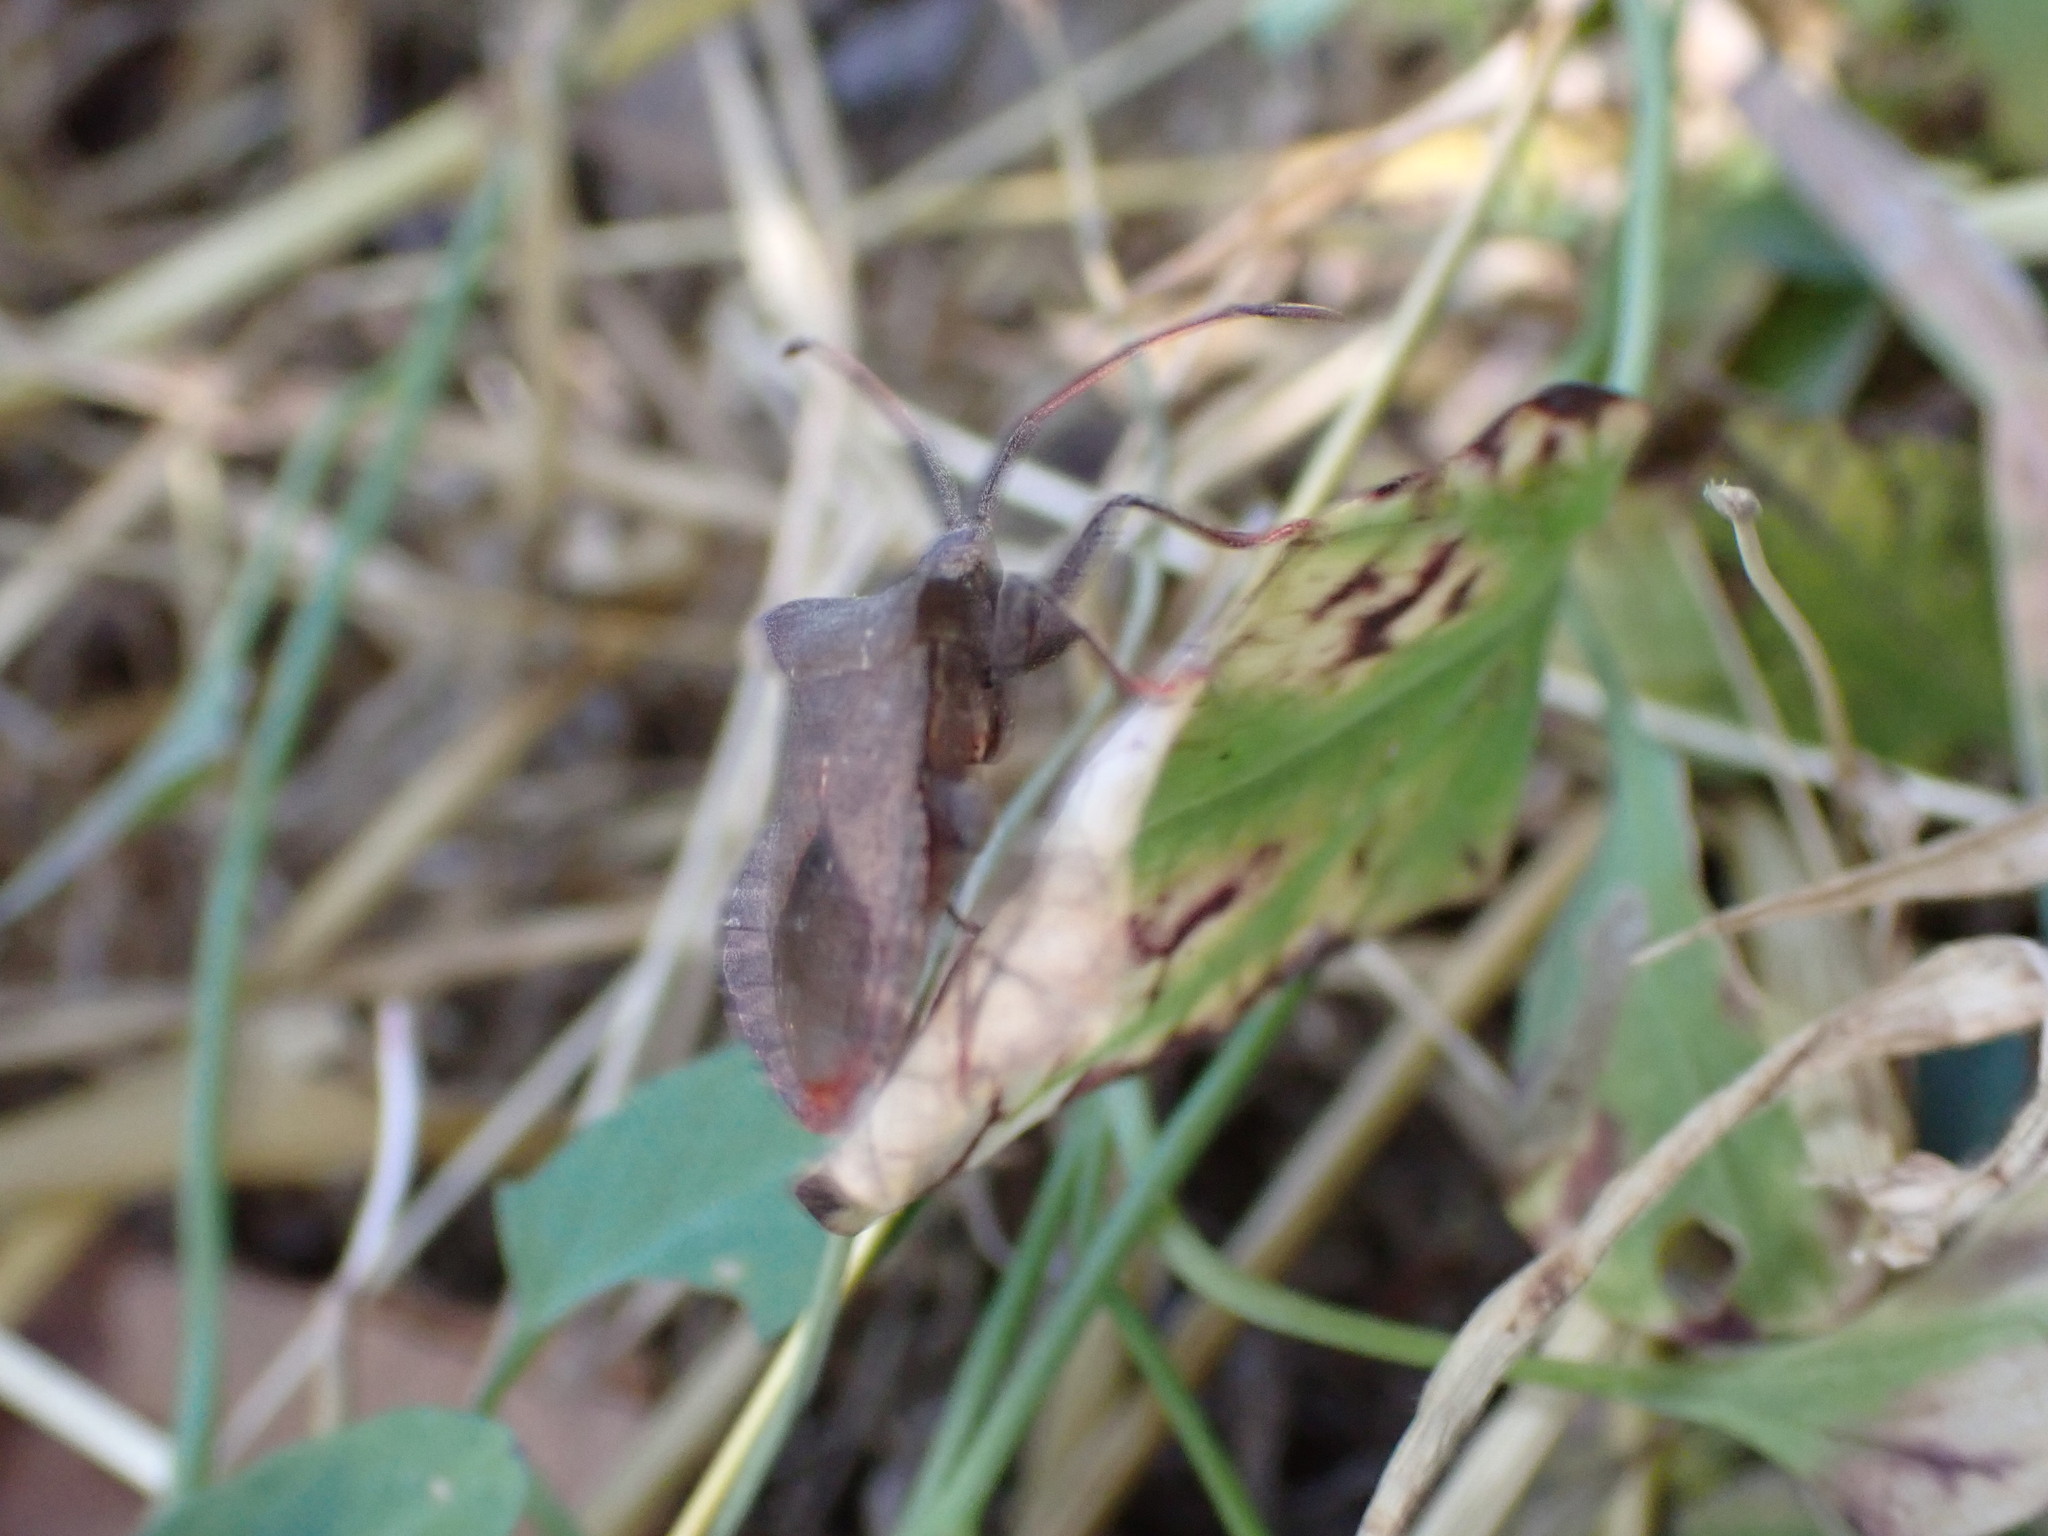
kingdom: Animalia
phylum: Arthropoda
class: Insecta
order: Hemiptera
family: Coreidae
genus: Coreus
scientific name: Coreus marginatus
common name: Dock bug
